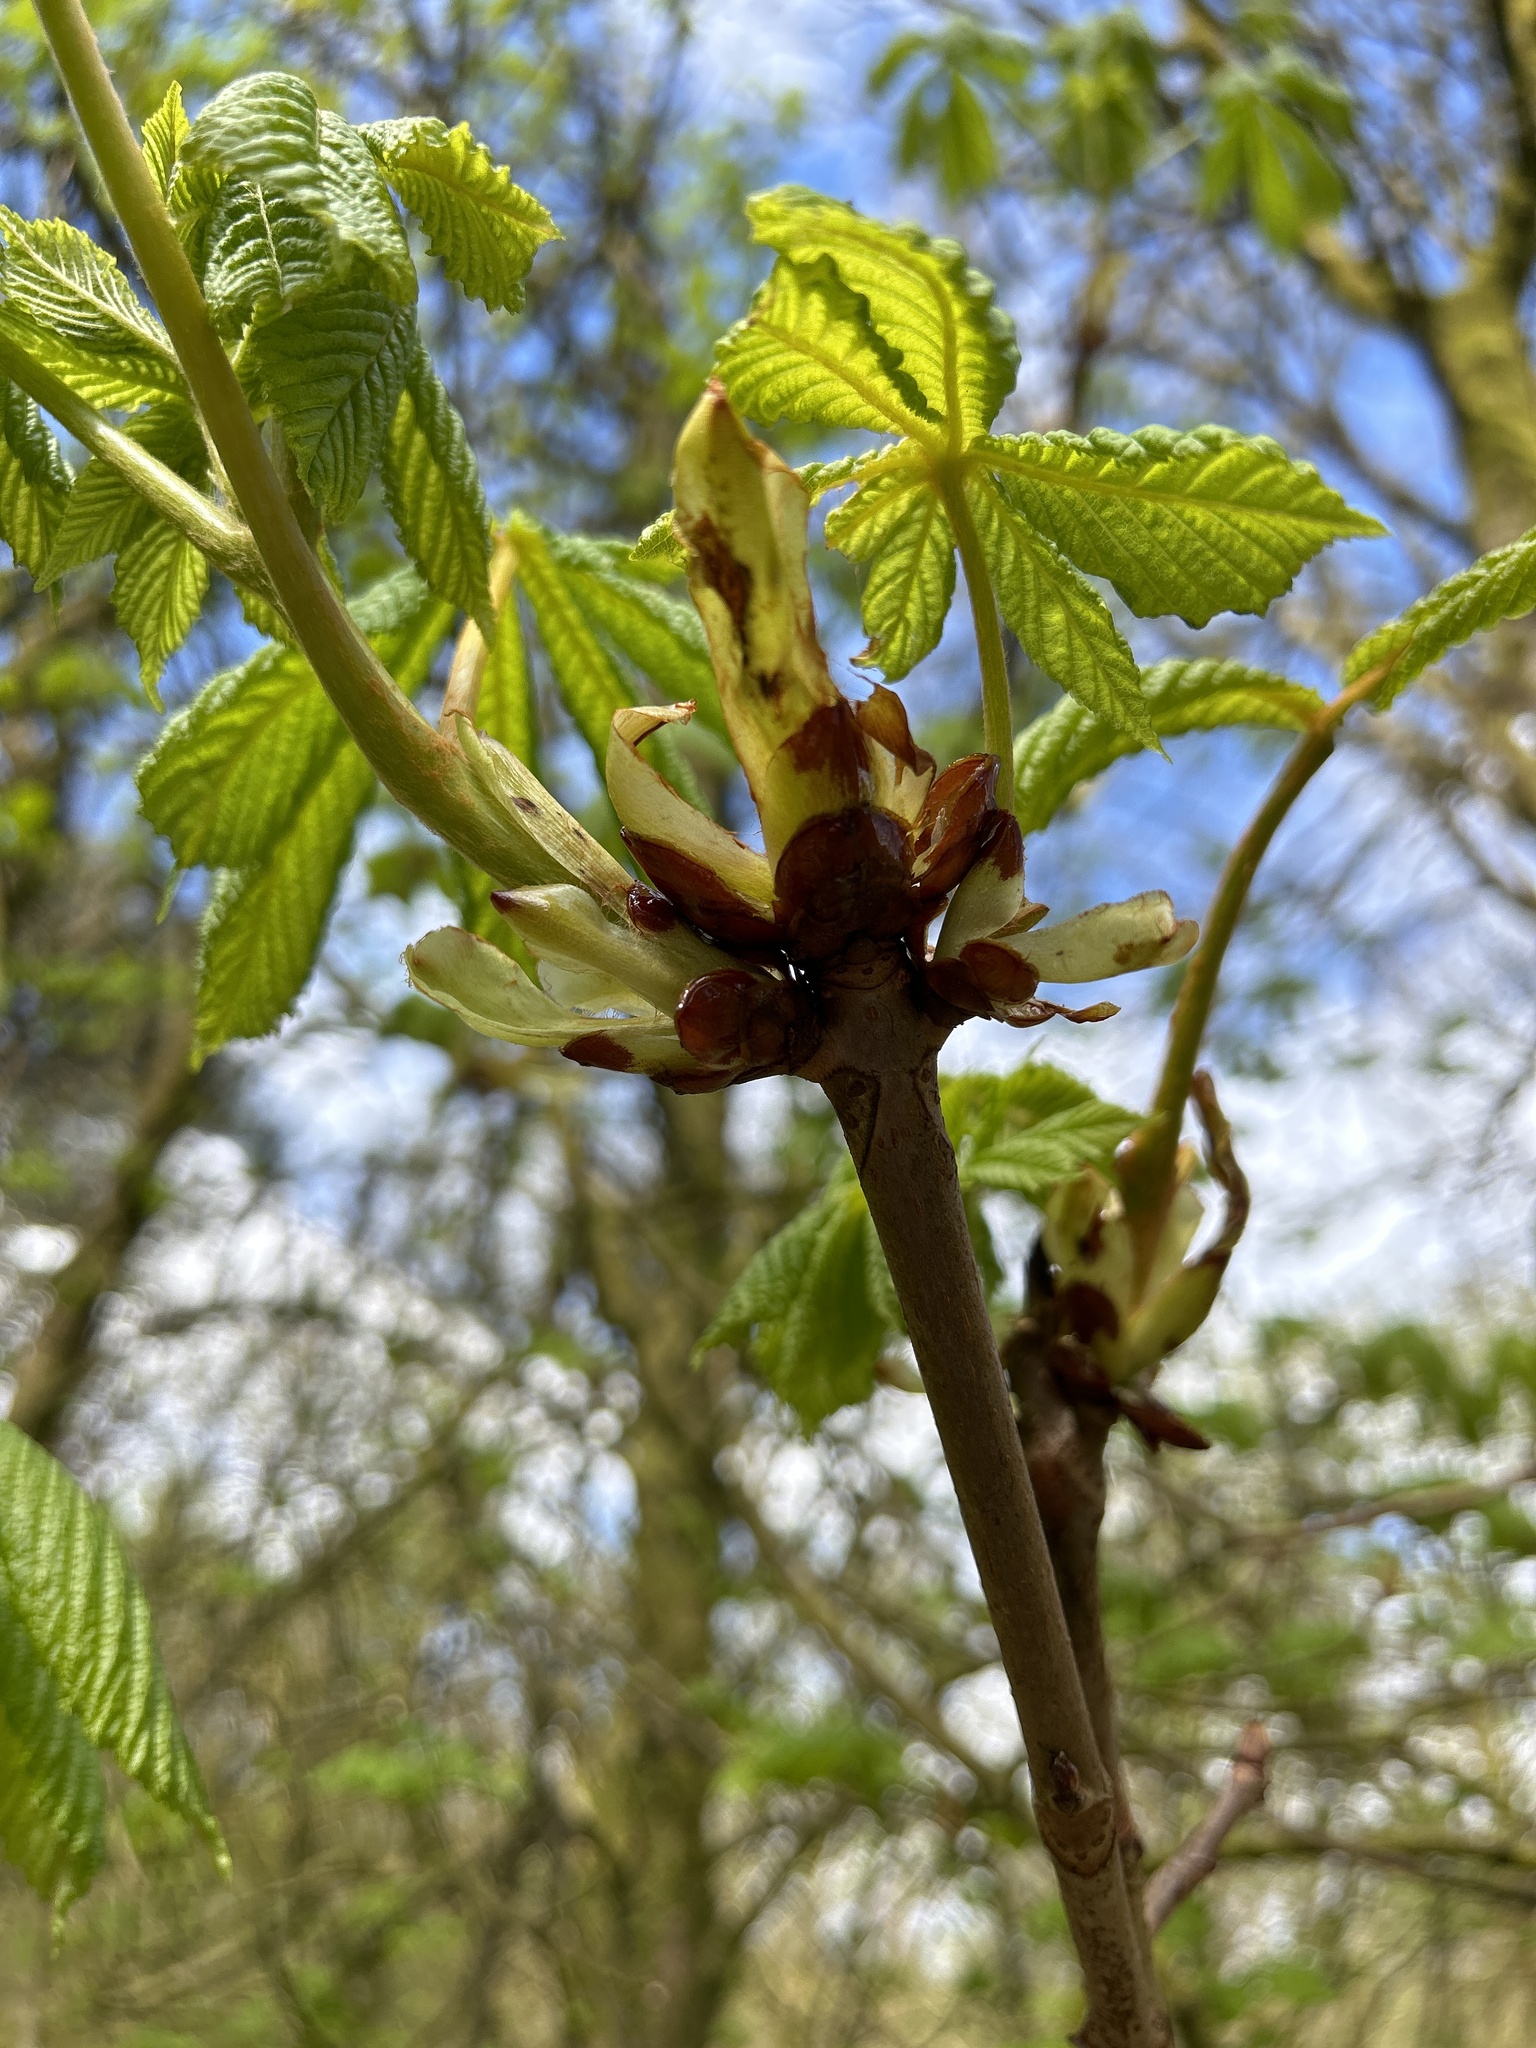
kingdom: Plantae
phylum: Tracheophyta
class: Magnoliopsida
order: Sapindales
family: Sapindaceae
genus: Aesculus
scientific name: Aesculus hippocastanum
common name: Horse-chestnut
